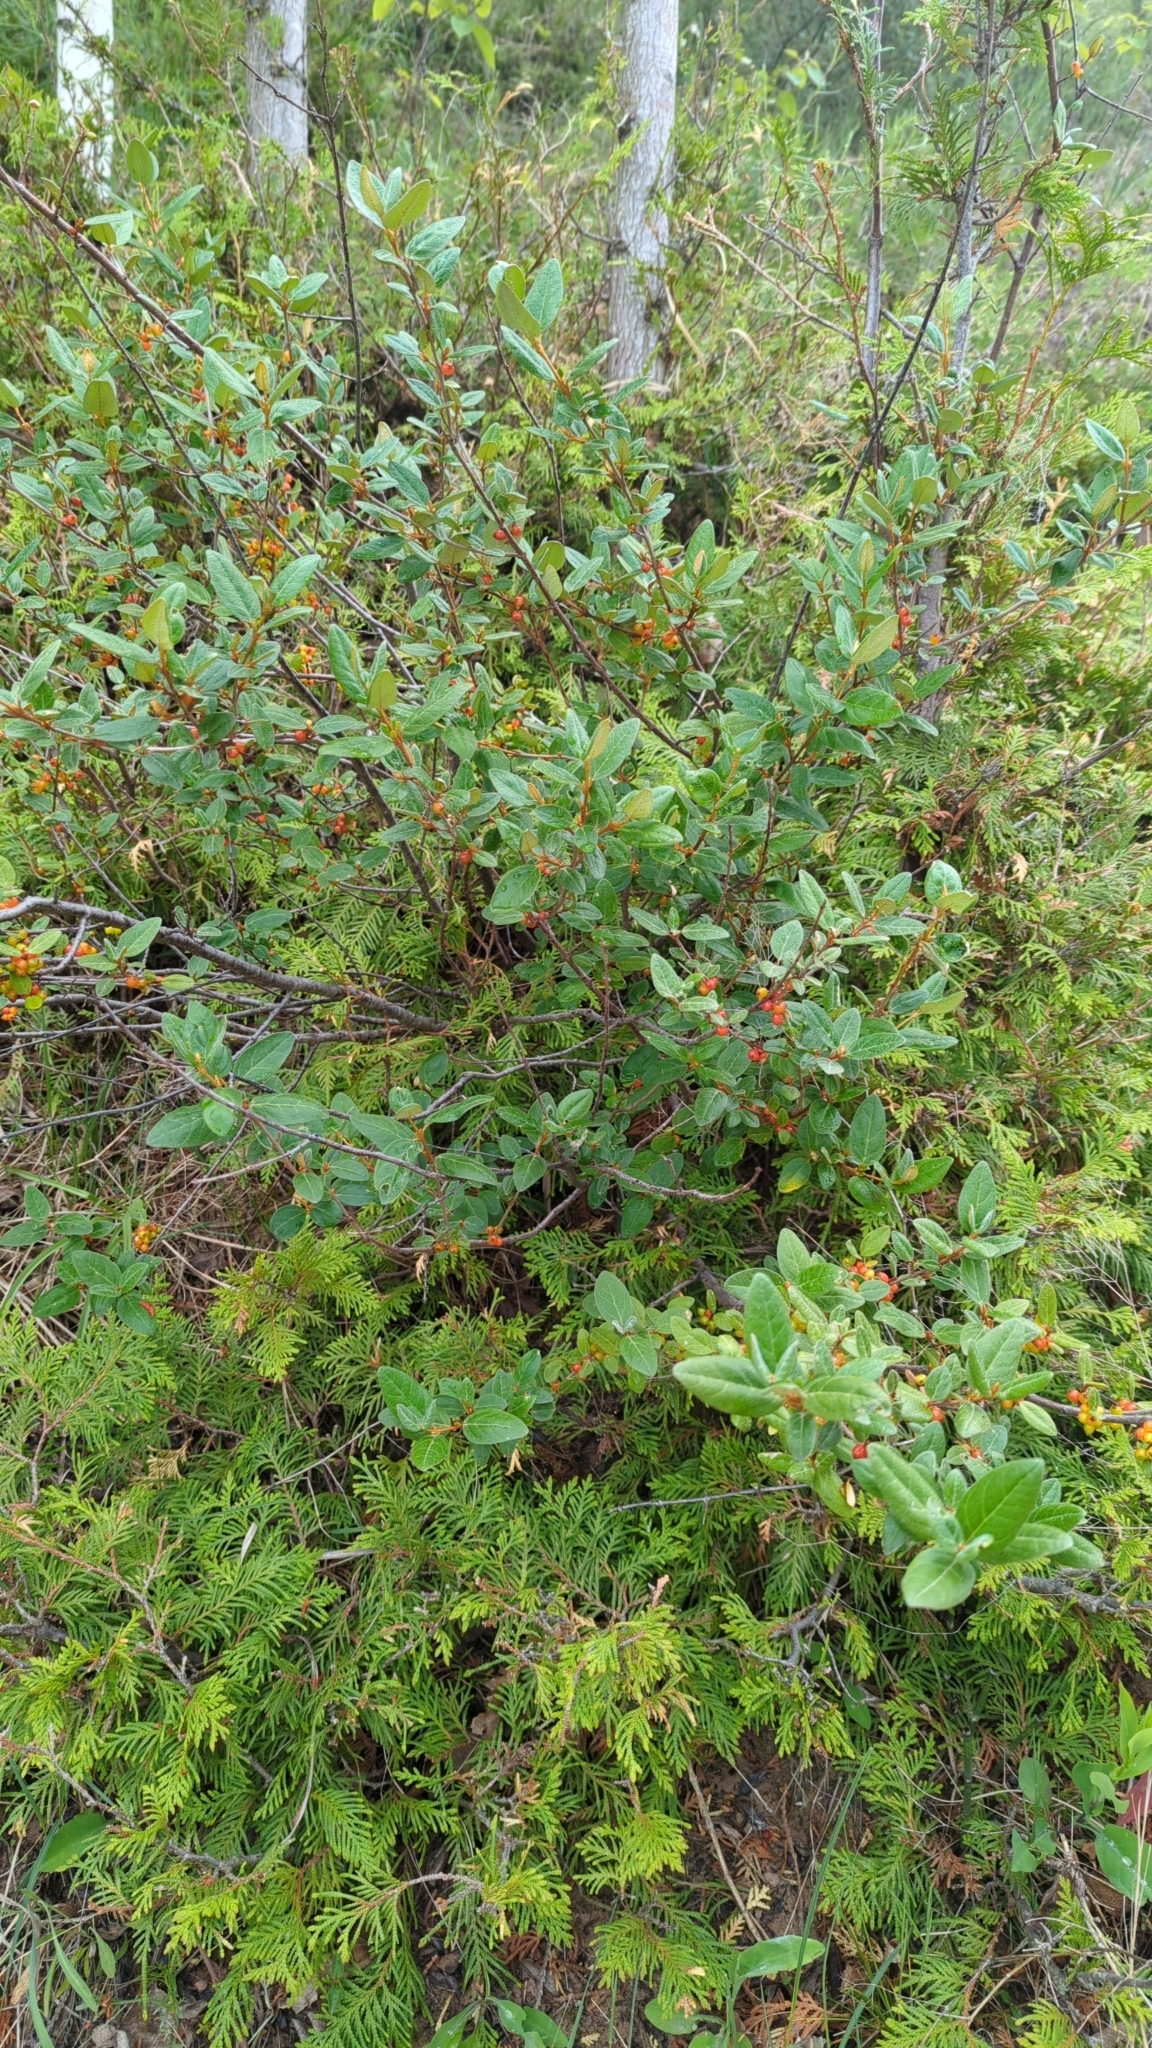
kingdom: Plantae
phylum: Tracheophyta
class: Magnoliopsida
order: Rosales
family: Elaeagnaceae
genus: Shepherdia
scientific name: Shepherdia canadensis
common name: Soapberry
